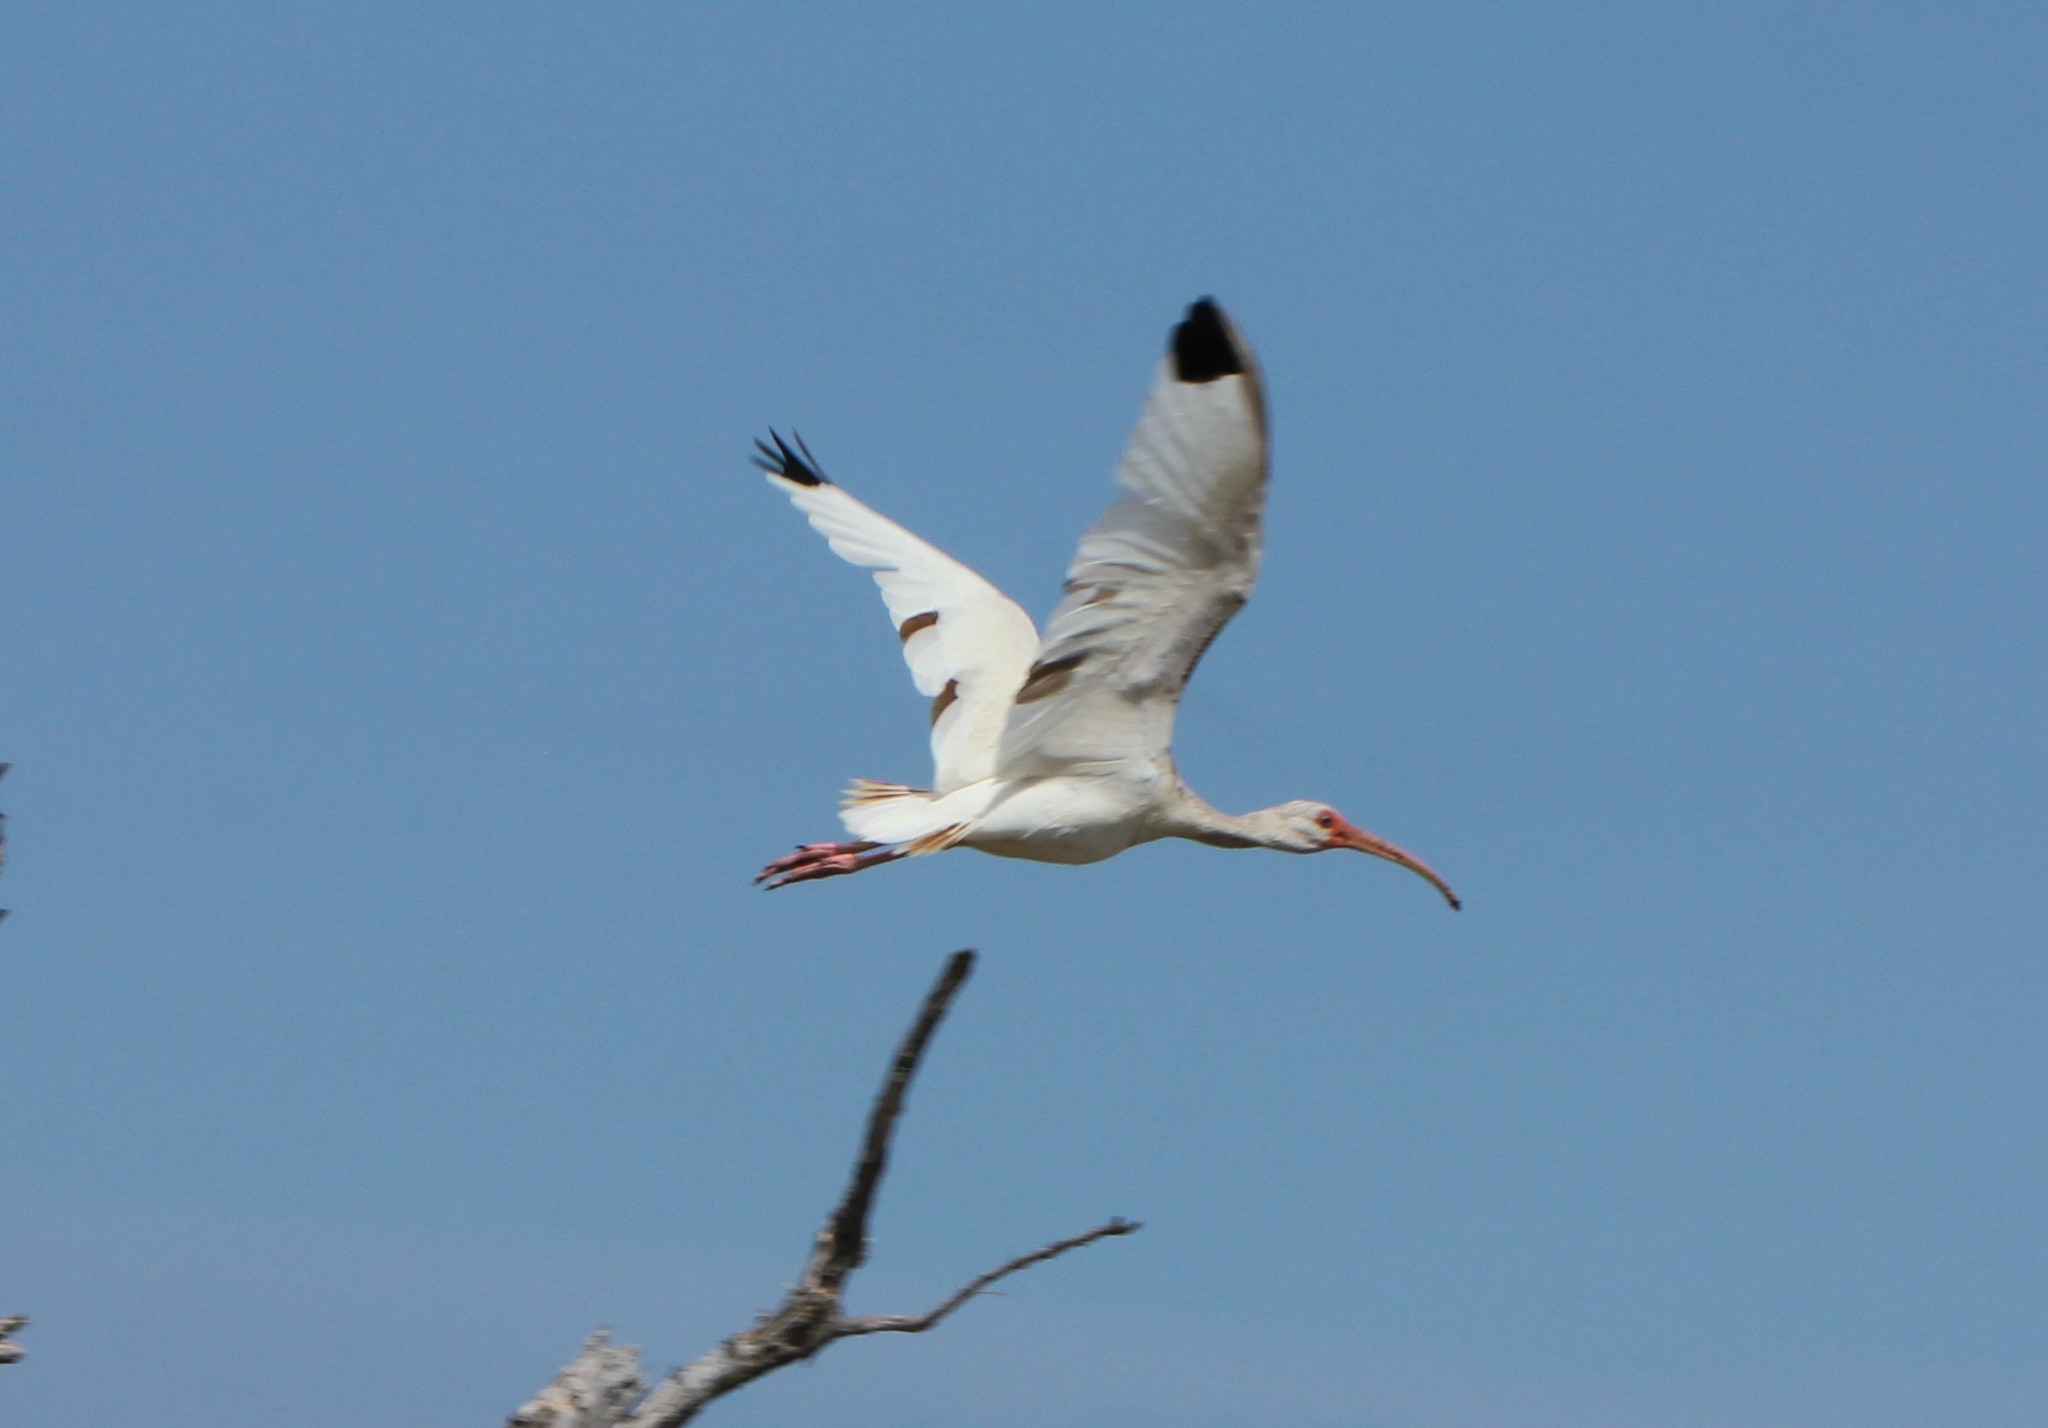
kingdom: Animalia
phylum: Chordata
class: Aves
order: Pelecaniformes
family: Threskiornithidae
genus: Eudocimus
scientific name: Eudocimus albus
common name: White ibis
